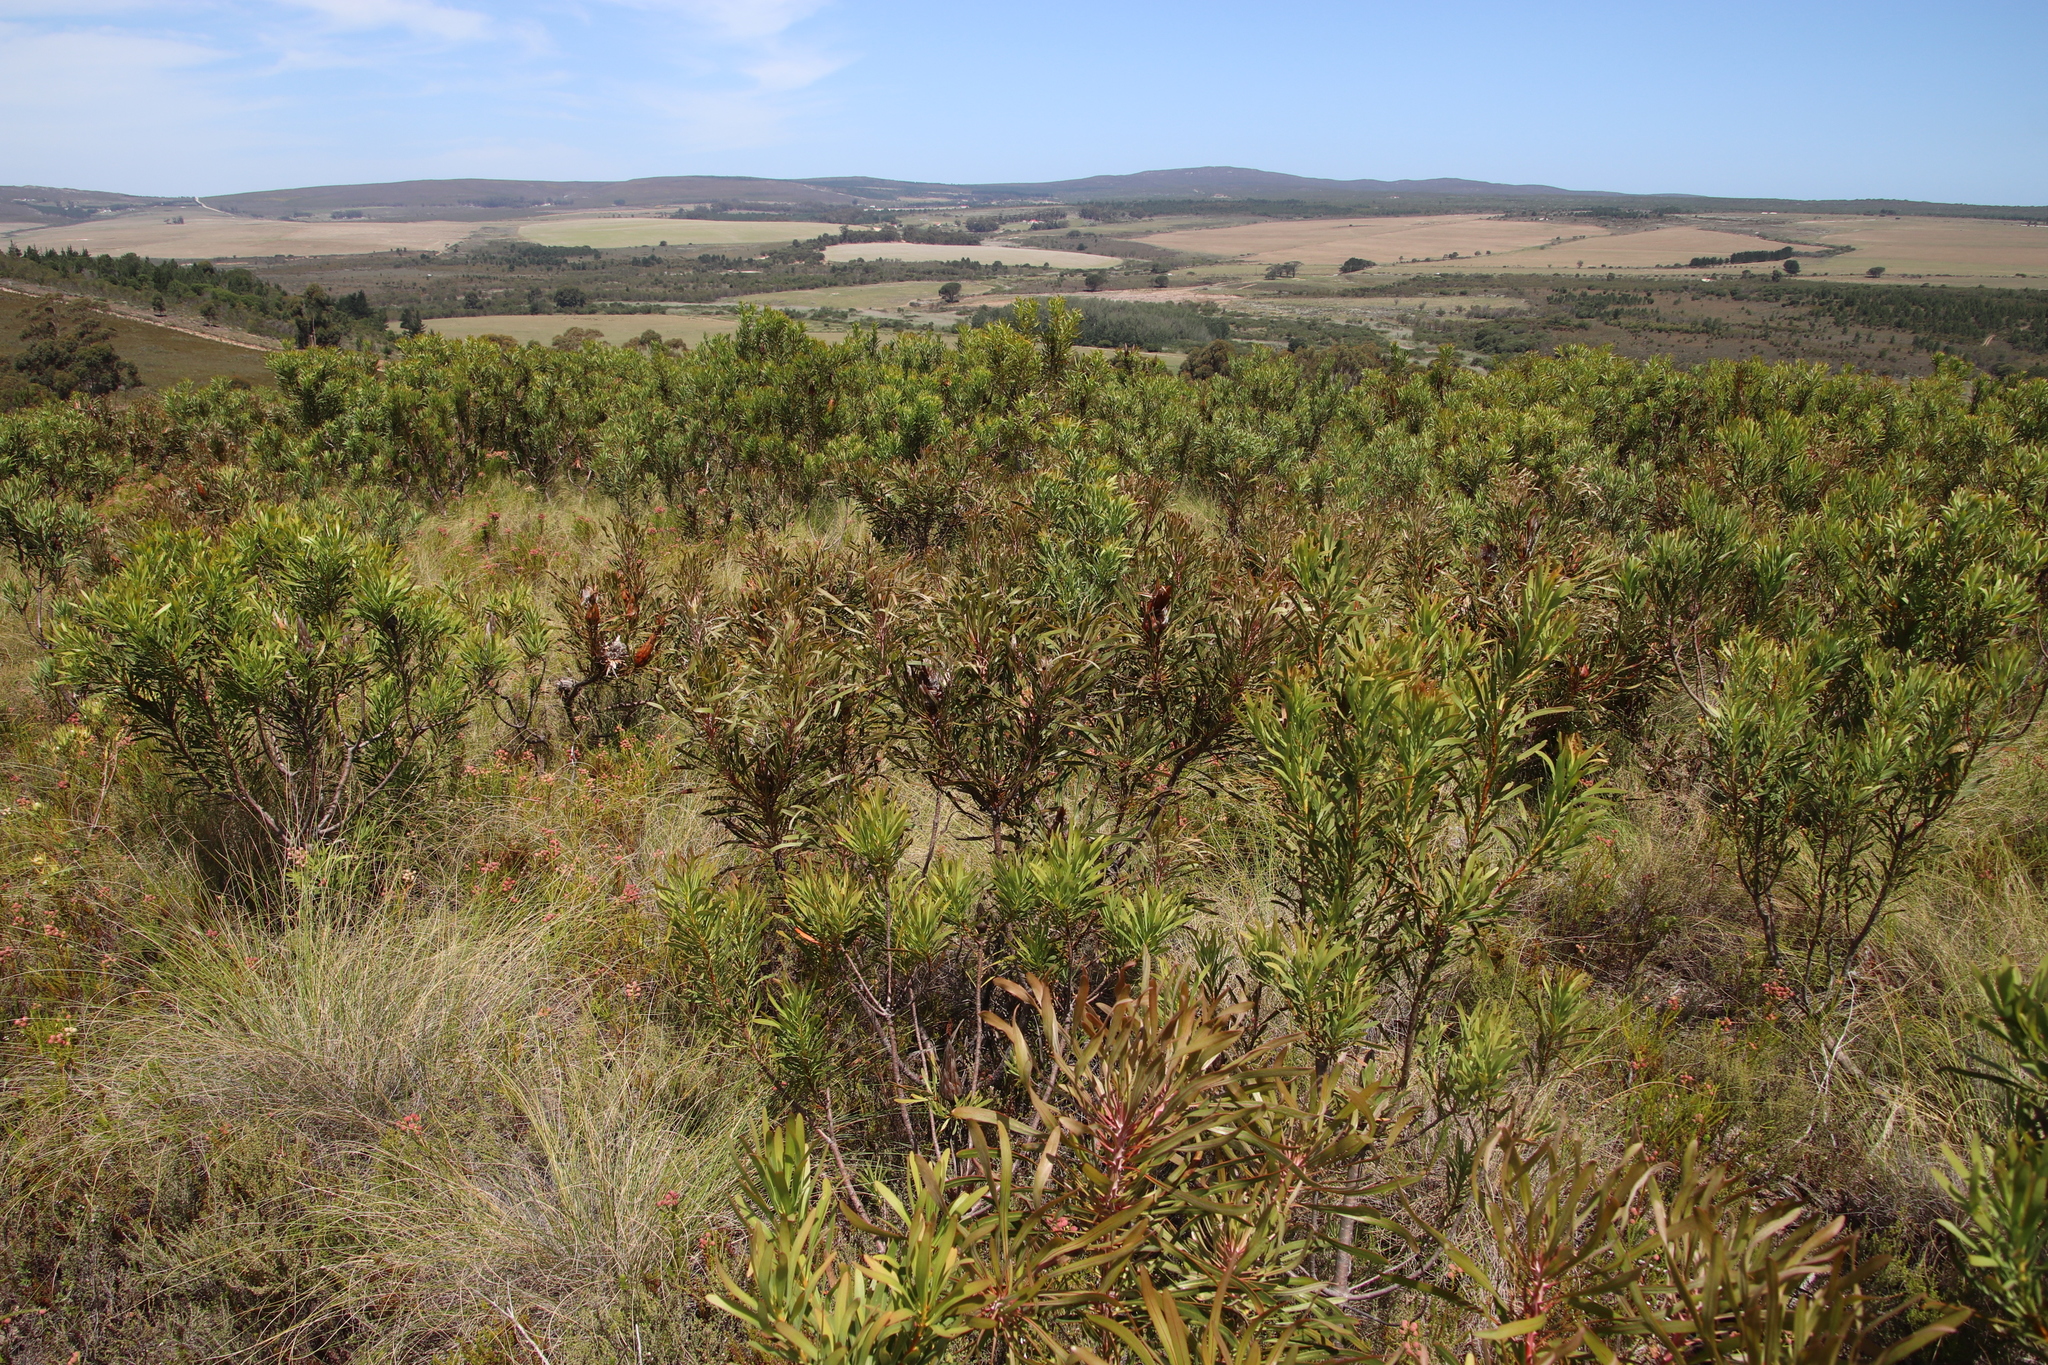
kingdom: Plantae
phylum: Tracheophyta
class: Magnoliopsida
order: Proteales
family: Proteaceae
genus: Protea
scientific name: Protea longifolia
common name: Long-leaf sugarbush
